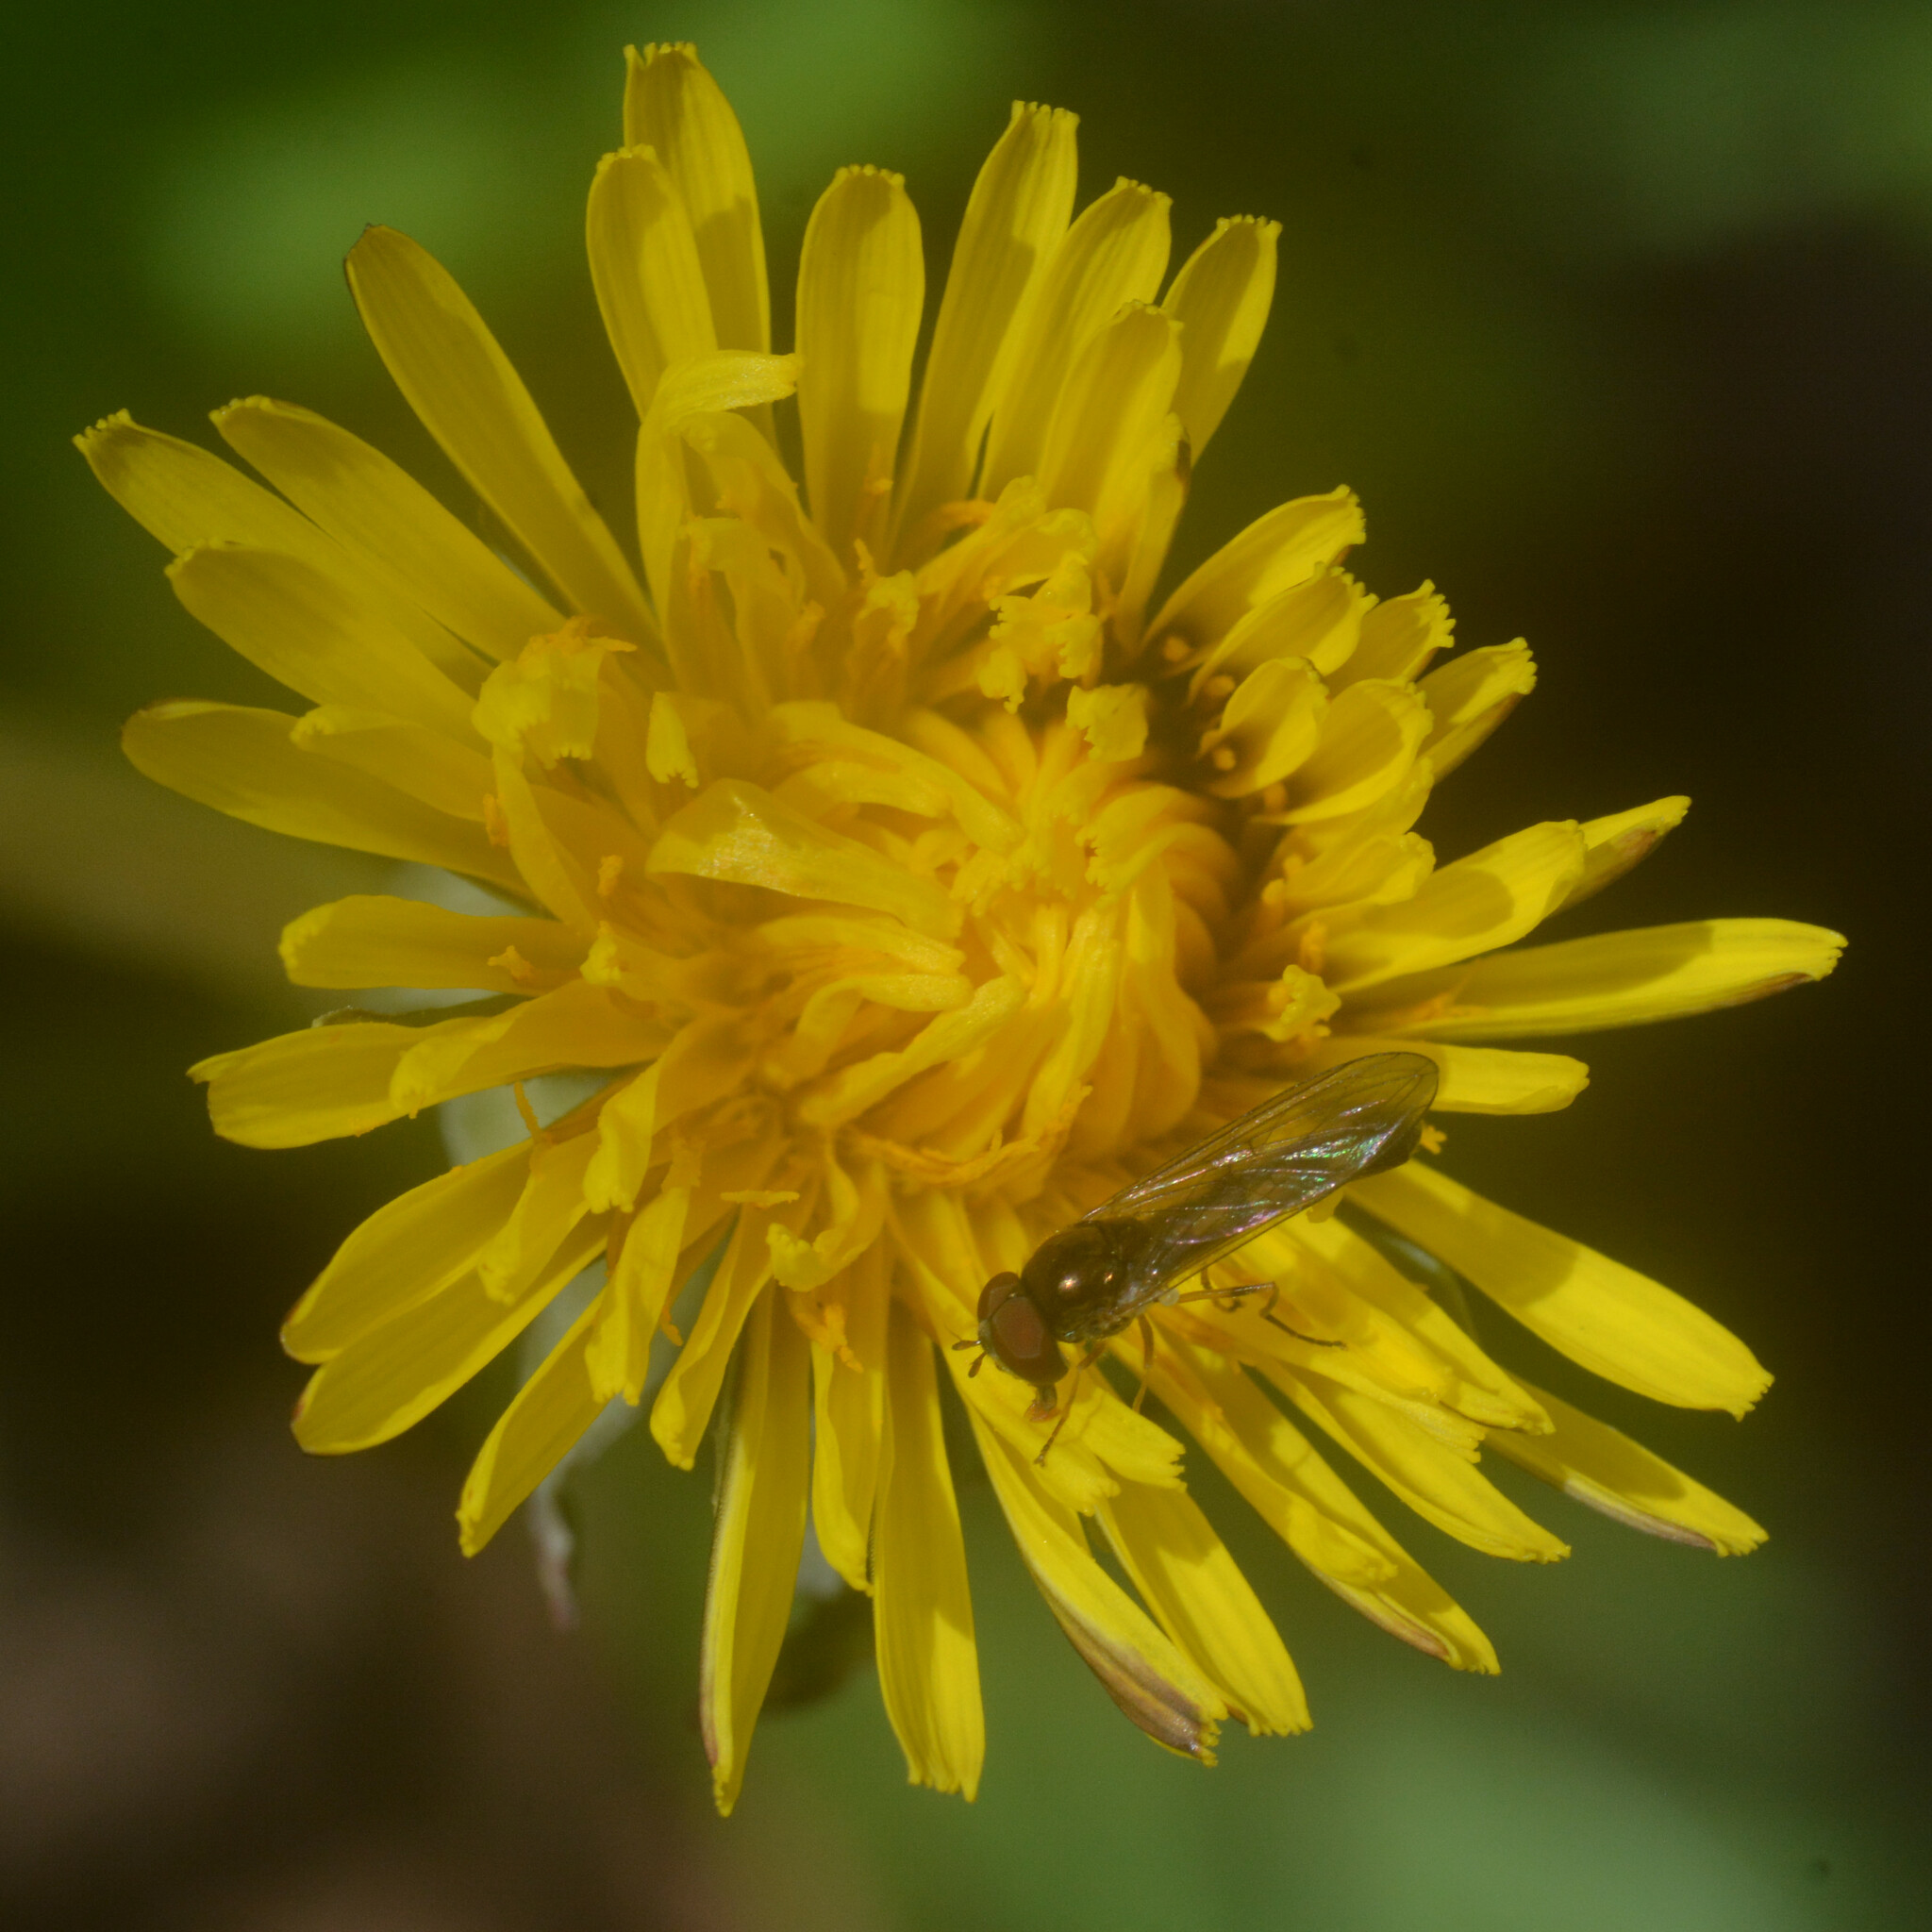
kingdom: Animalia
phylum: Arthropoda
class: Insecta
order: Diptera
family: Syrphidae
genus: Melanostoma
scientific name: Melanostoma scalare
